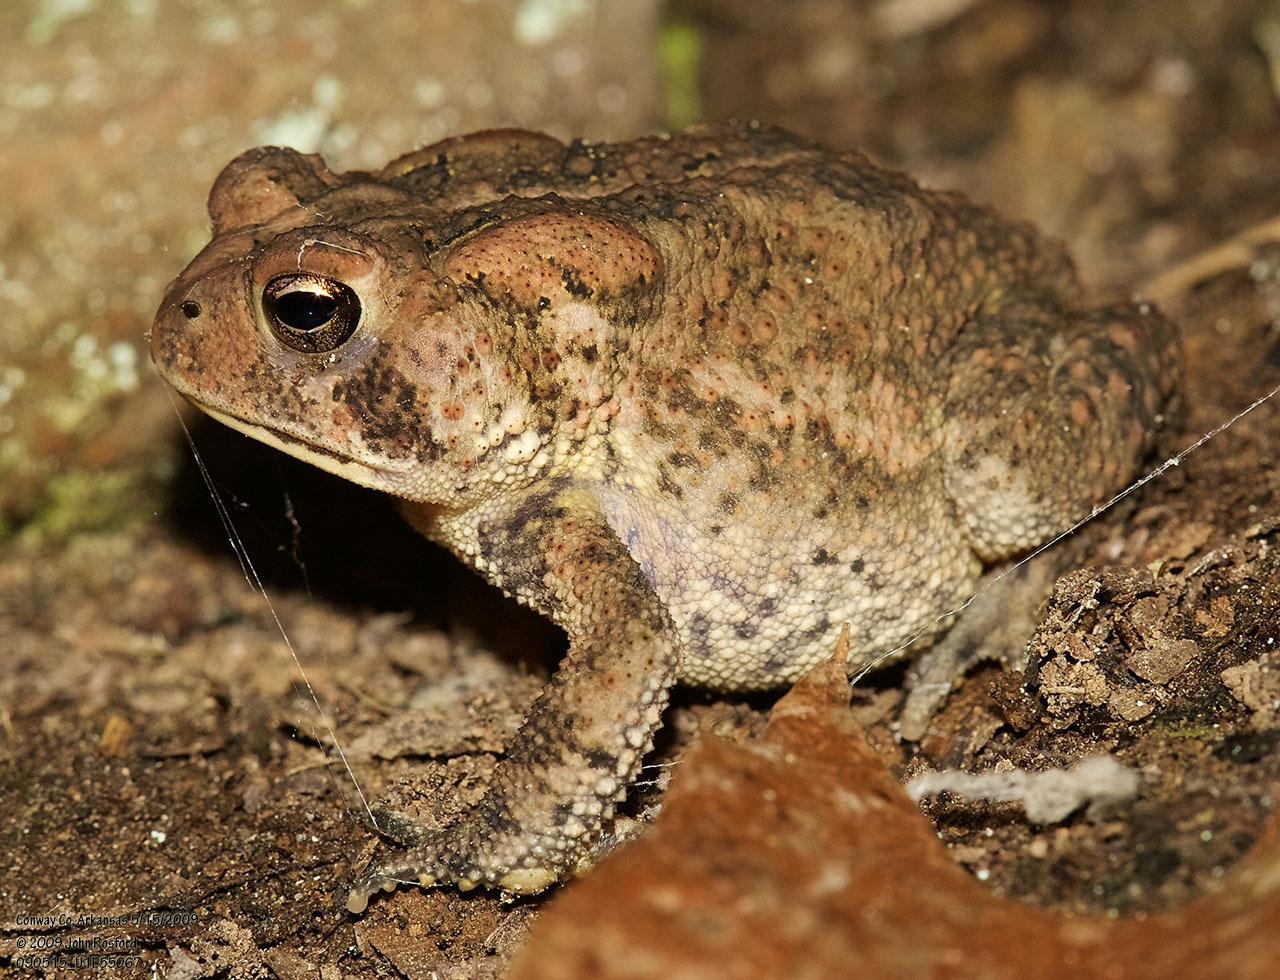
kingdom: Animalia
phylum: Chordata
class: Amphibia
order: Anura
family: Bufonidae
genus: Anaxyrus
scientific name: Anaxyrus americanus
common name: American toad
